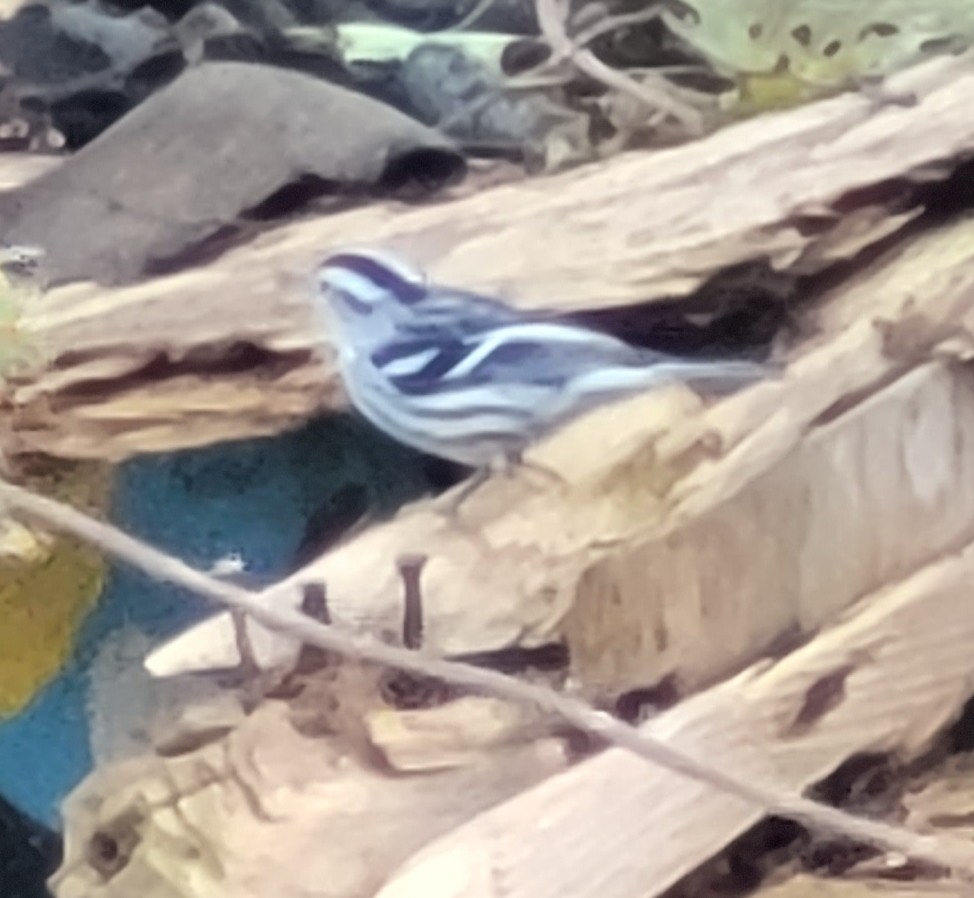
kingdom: Animalia
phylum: Chordata
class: Aves
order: Passeriformes
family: Parulidae
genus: Mniotilta
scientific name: Mniotilta varia
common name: Black-and-white warbler
